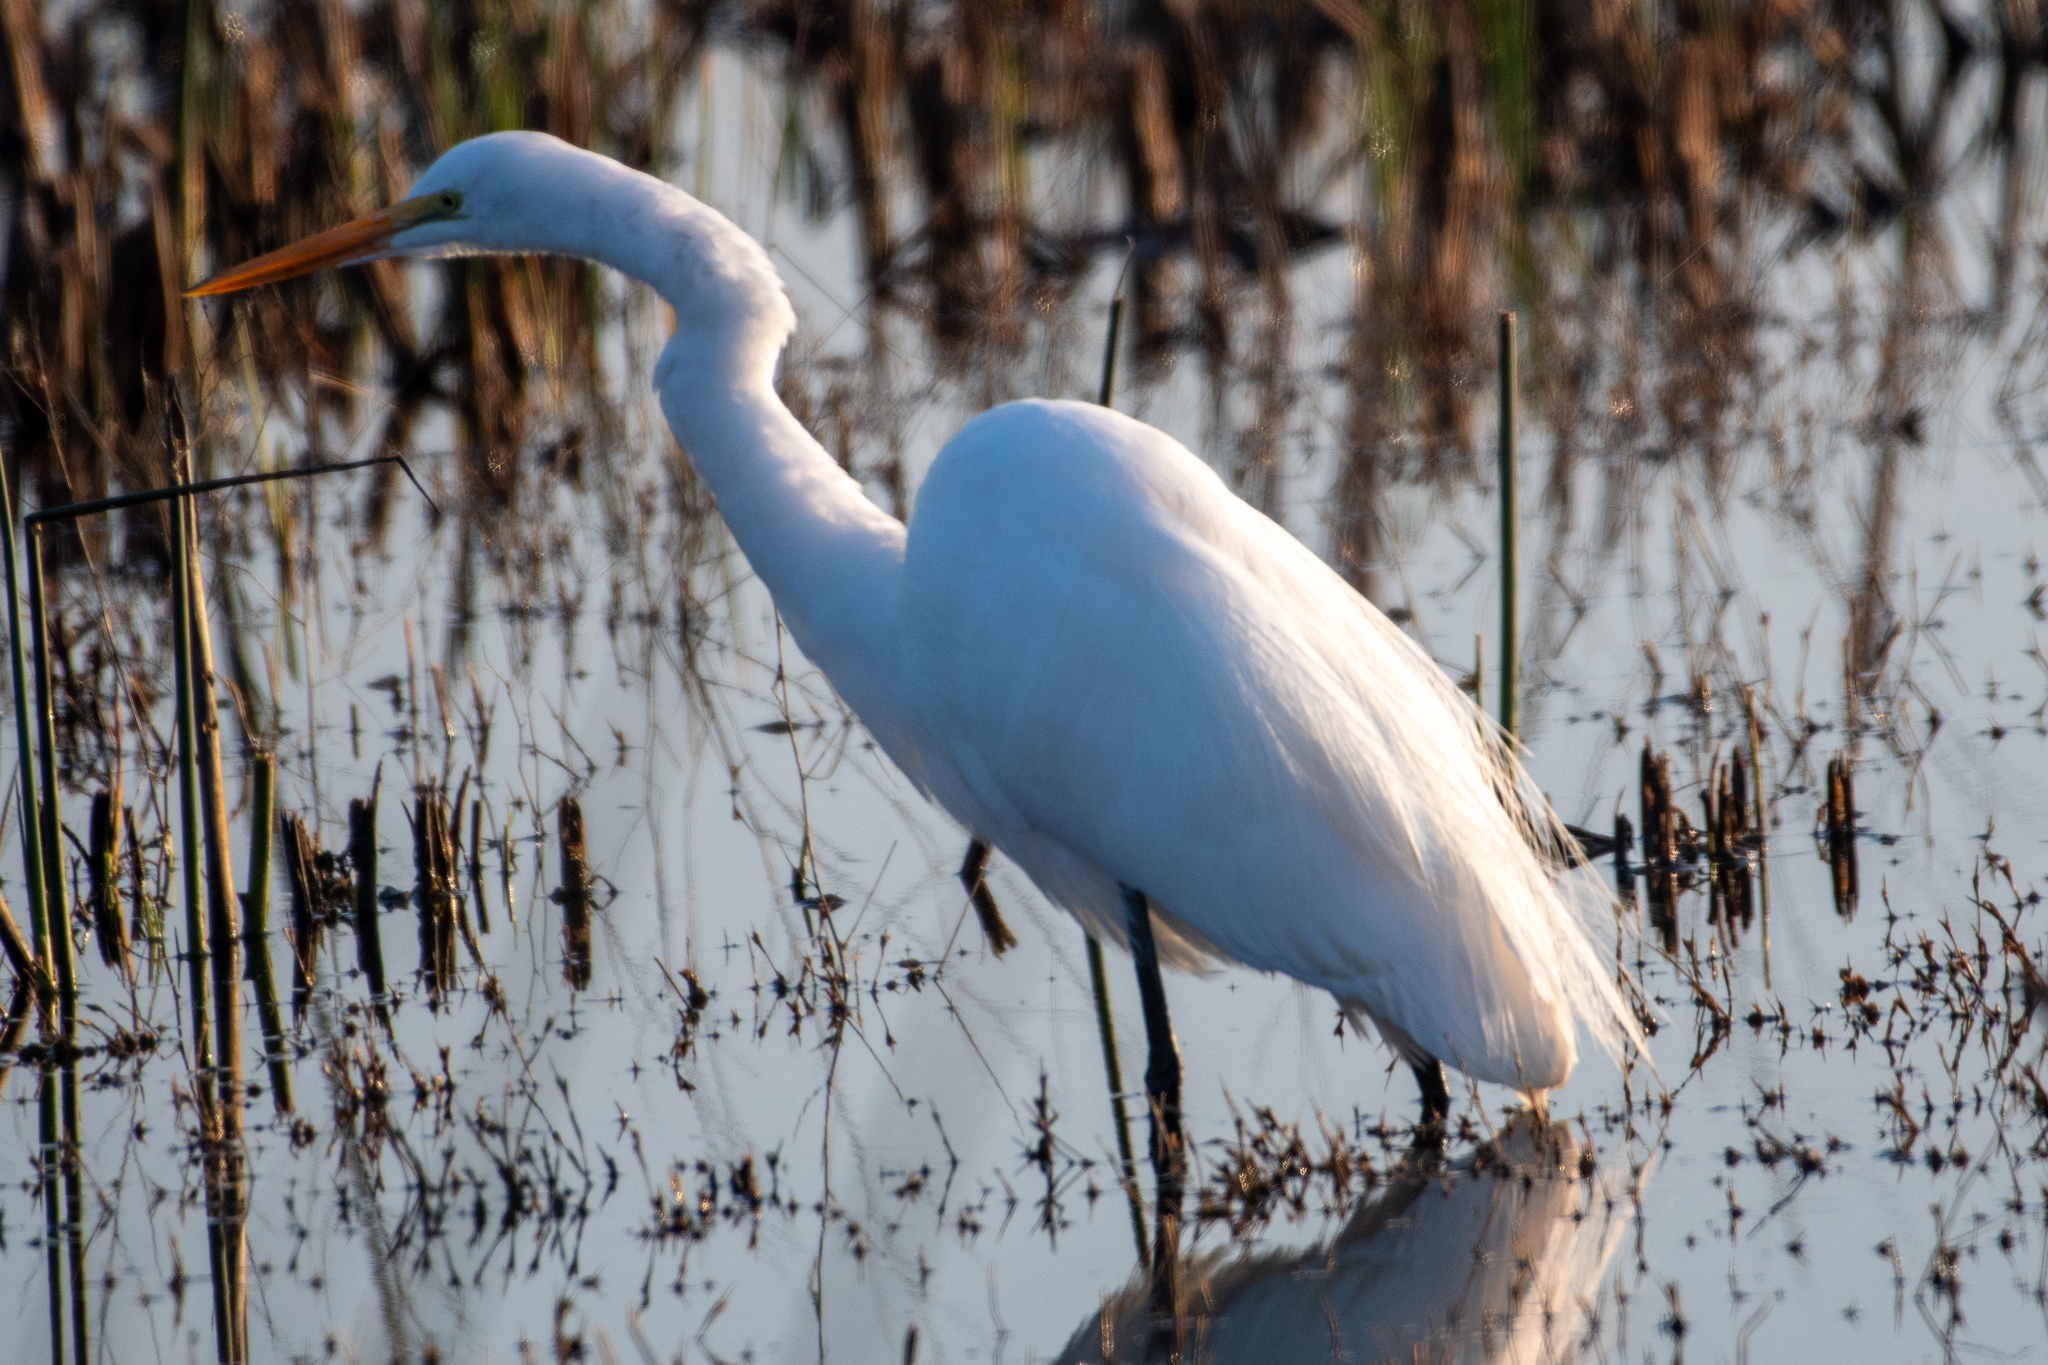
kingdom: Animalia
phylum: Chordata
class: Aves
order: Pelecaniformes
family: Ardeidae
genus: Ardea
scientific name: Ardea alba
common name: Great egret
